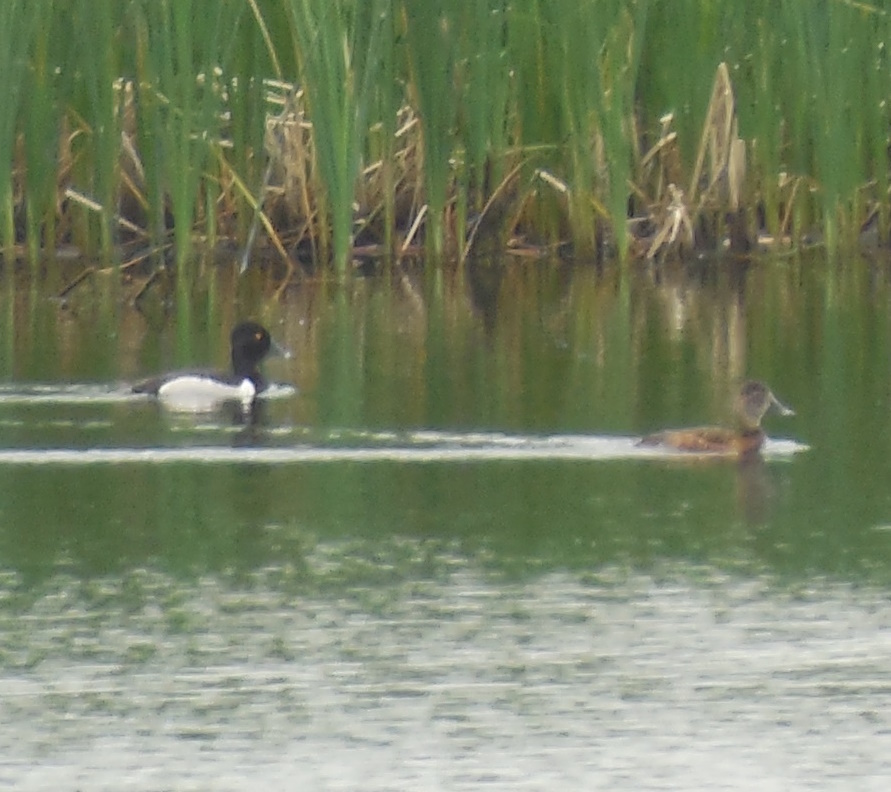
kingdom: Animalia
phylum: Chordata
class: Aves
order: Anseriformes
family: Anatidae
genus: Aythya
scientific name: Aythya collaris
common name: Ring-necked duck
